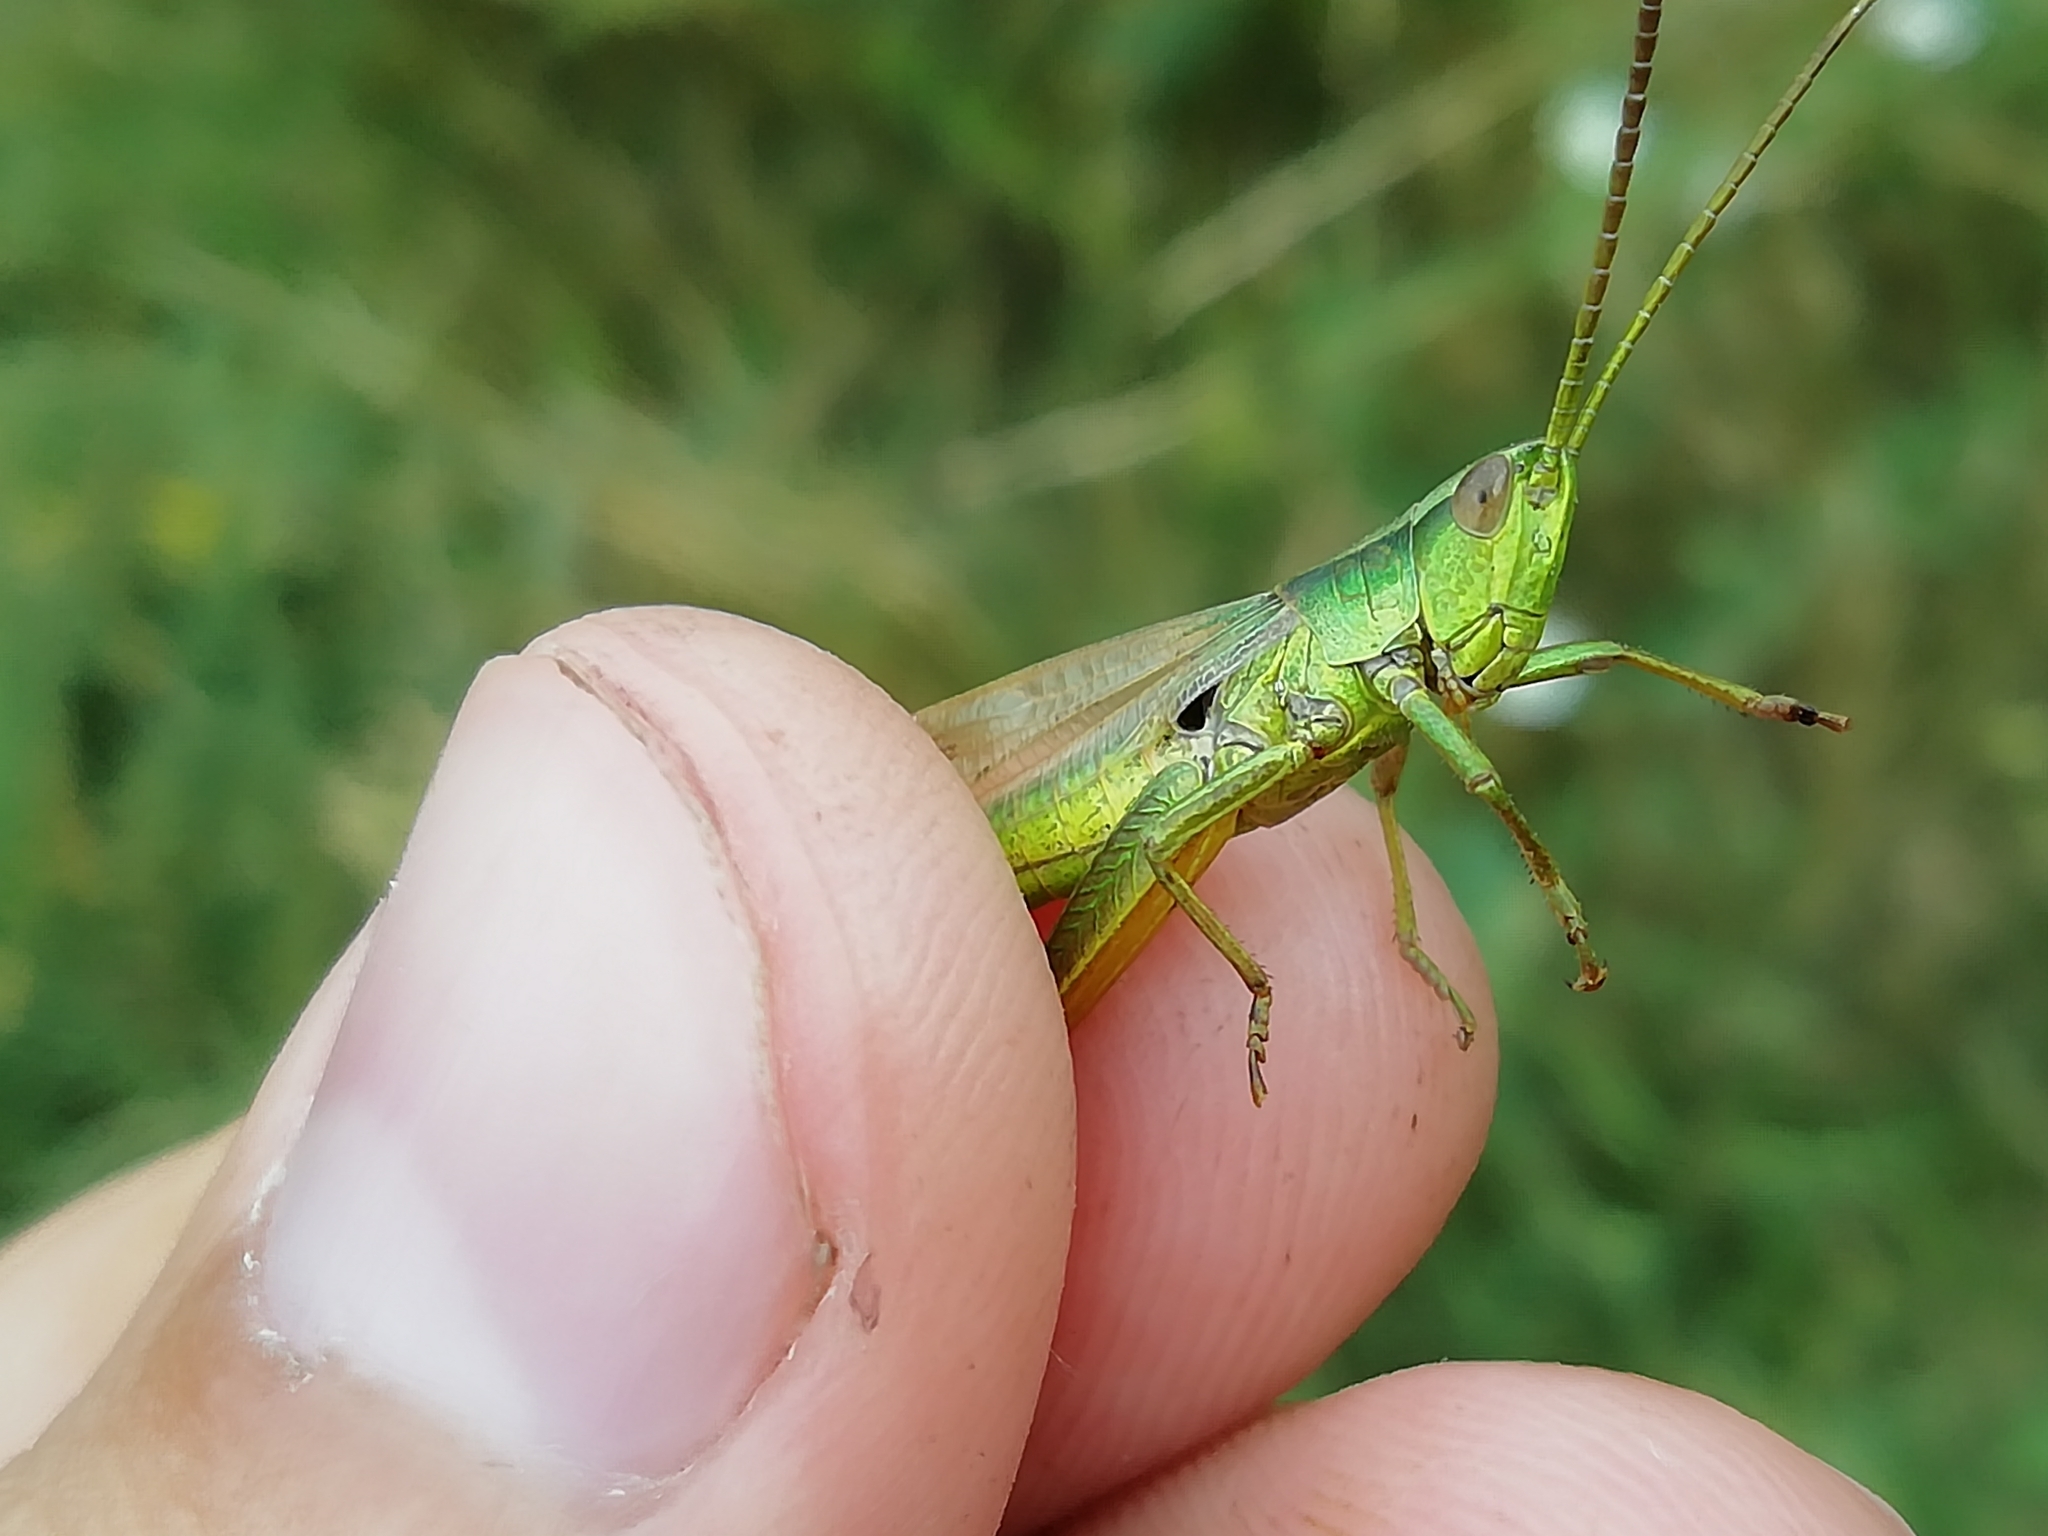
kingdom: Animalia
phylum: Arthropoda
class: Insecta
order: Orthoptera
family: Acrididae
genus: Euthystira
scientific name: Euthystira brachyptera
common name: Small gold grasshopper
